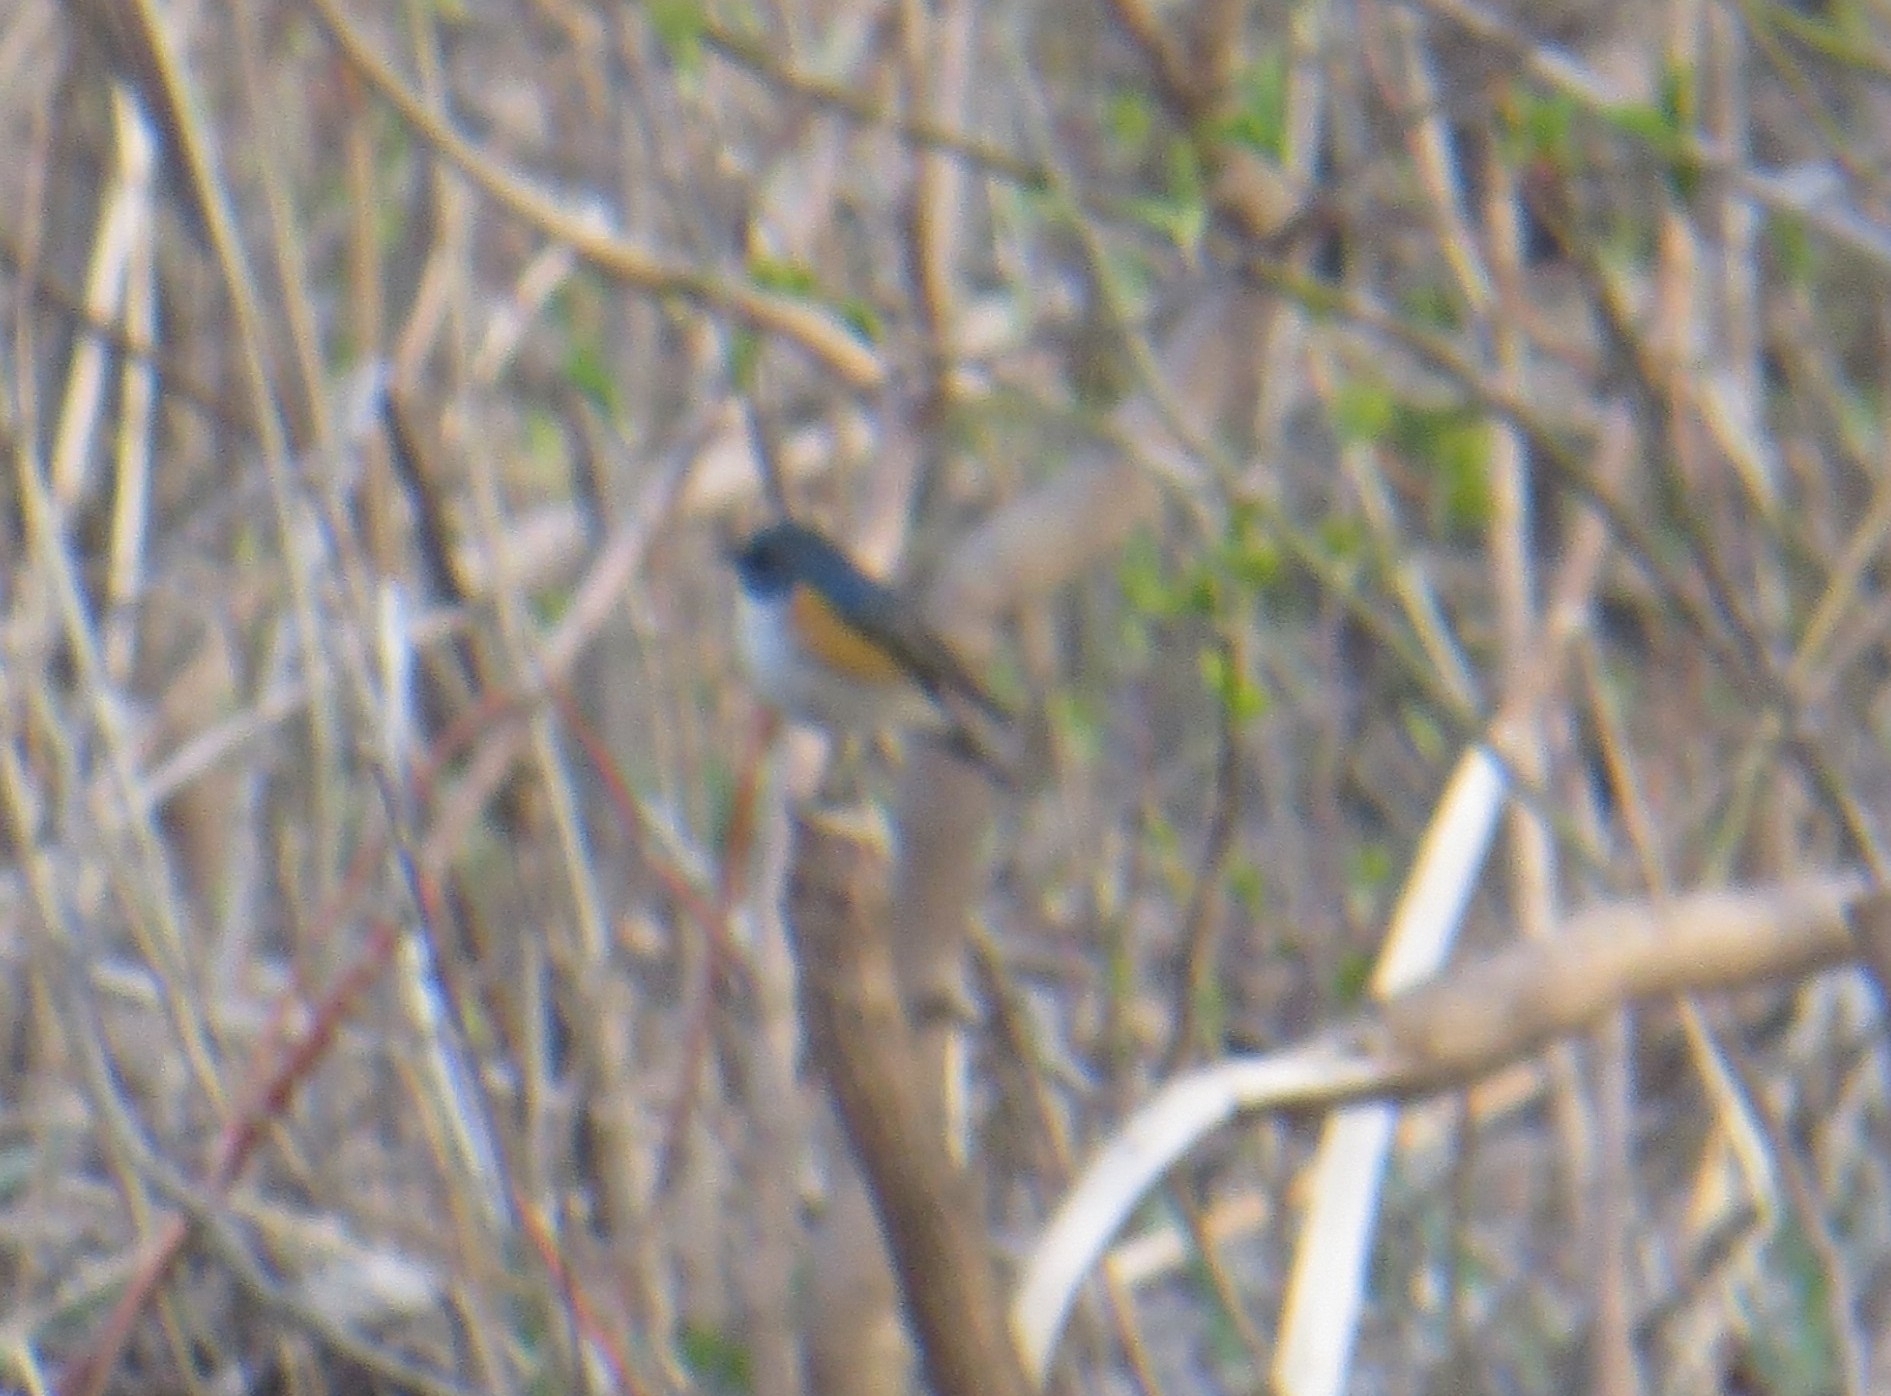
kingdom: Animalia
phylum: Chordata
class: Aves
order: Passeriformes
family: Muscicapidae
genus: Tarsiger
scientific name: Tarsiger cyanurus
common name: Red-flanked bluetail
